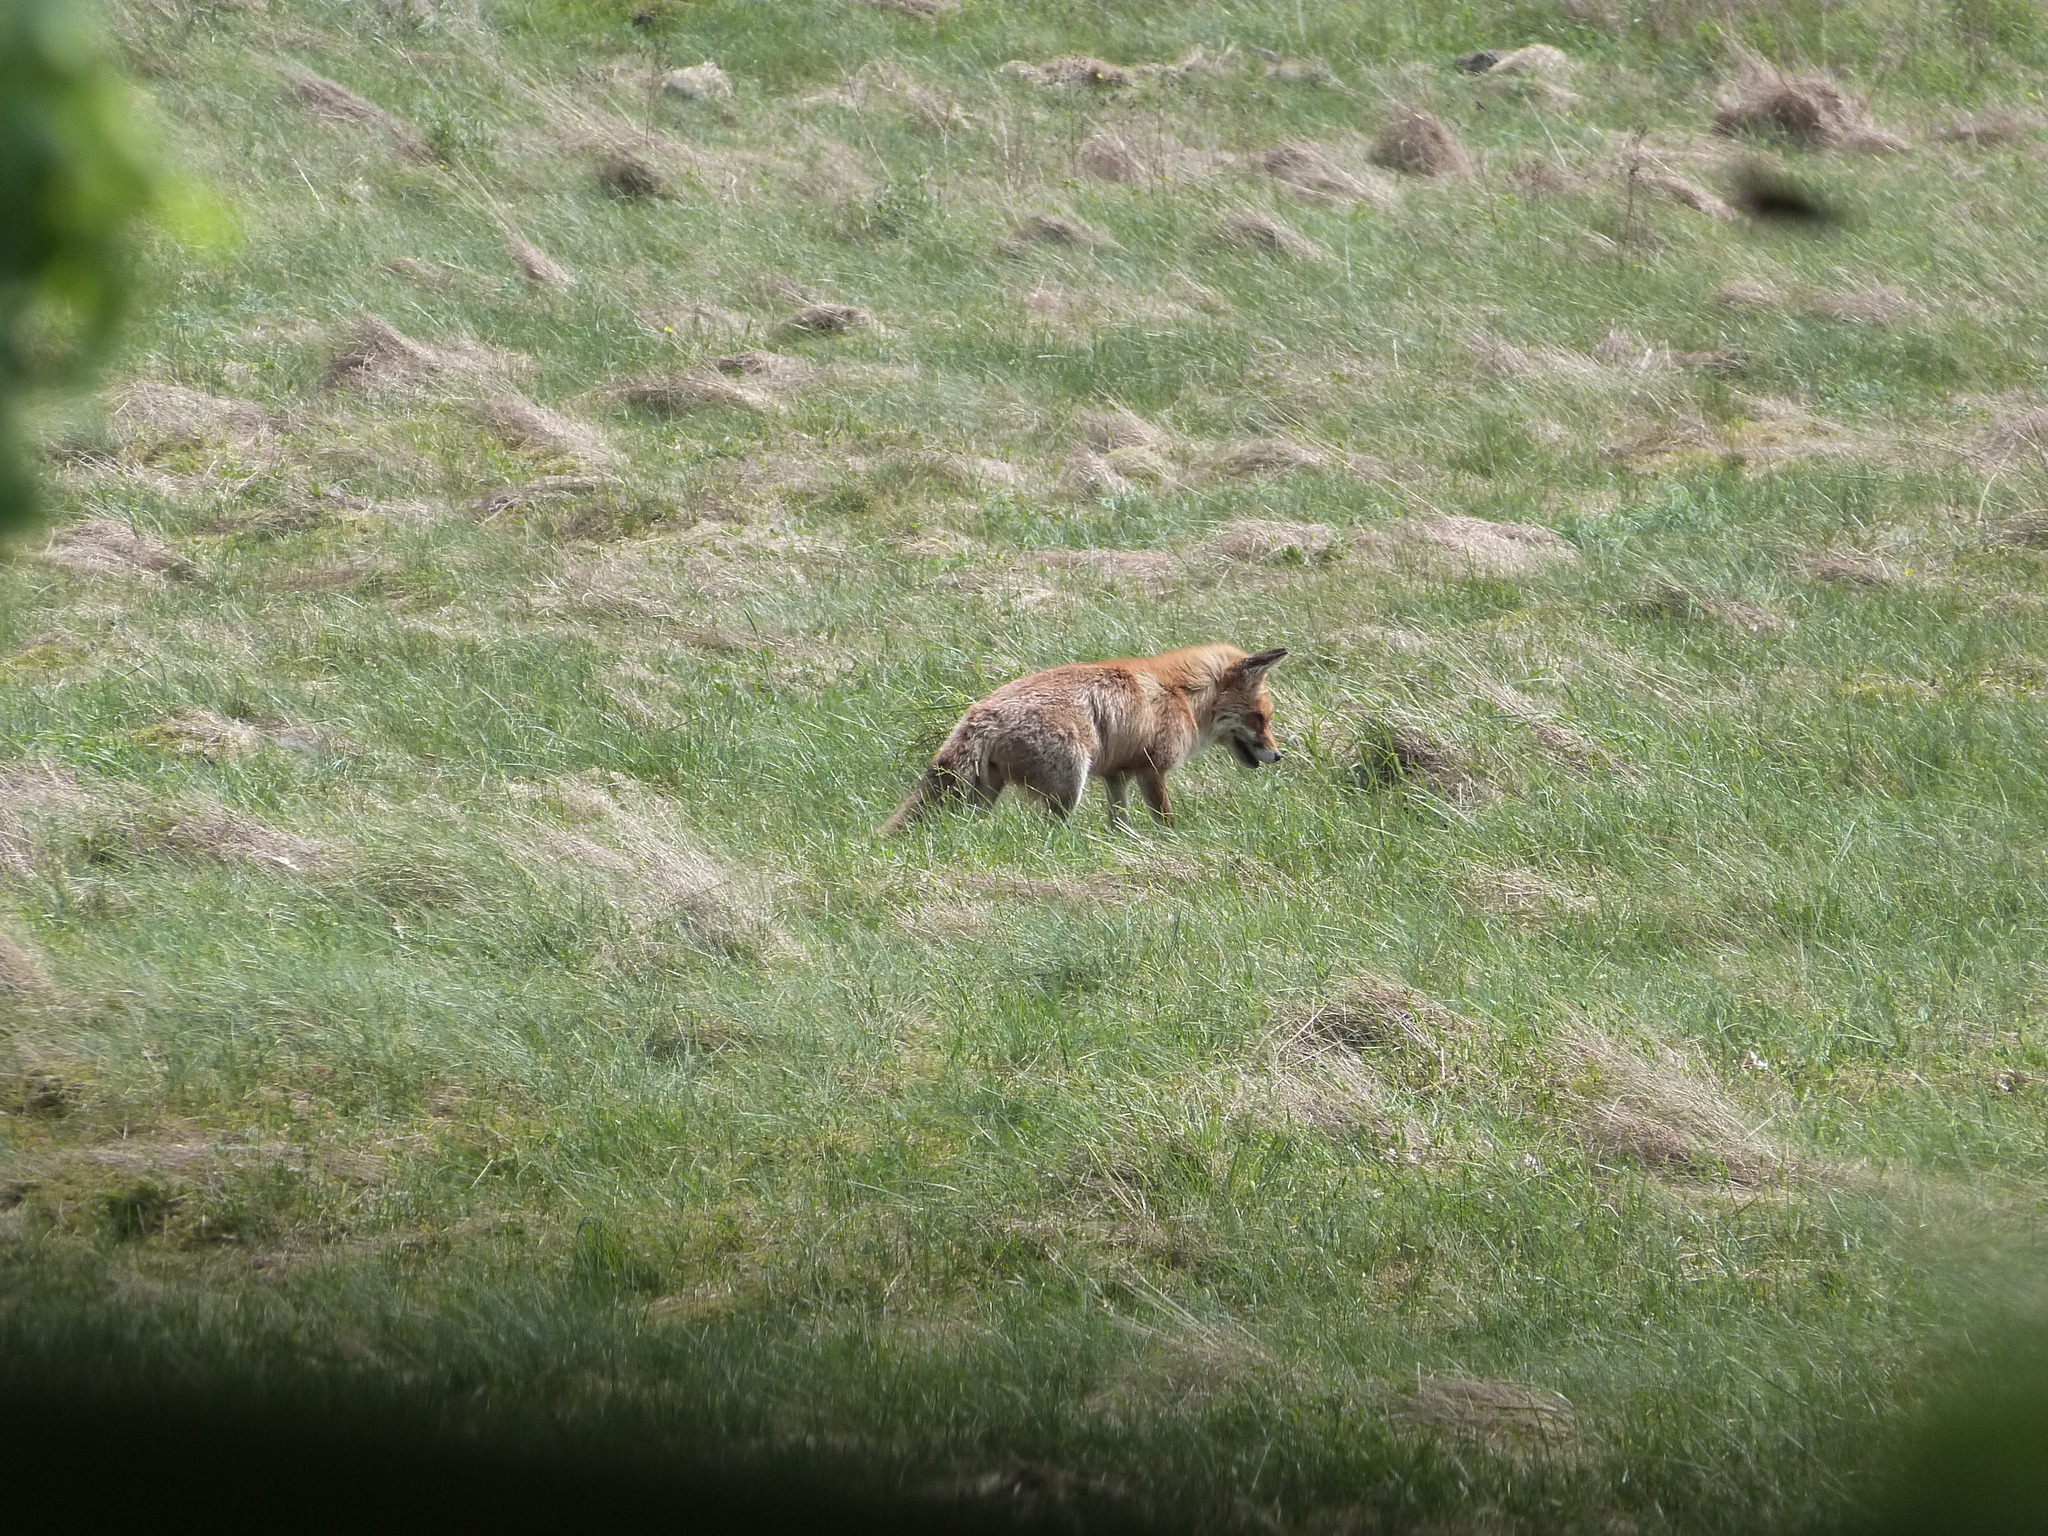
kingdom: Animalia
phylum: Chordata
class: Mammalia
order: Carnivora
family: Canidae
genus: Vulpes
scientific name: Vulpes vulpes
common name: Red fox
